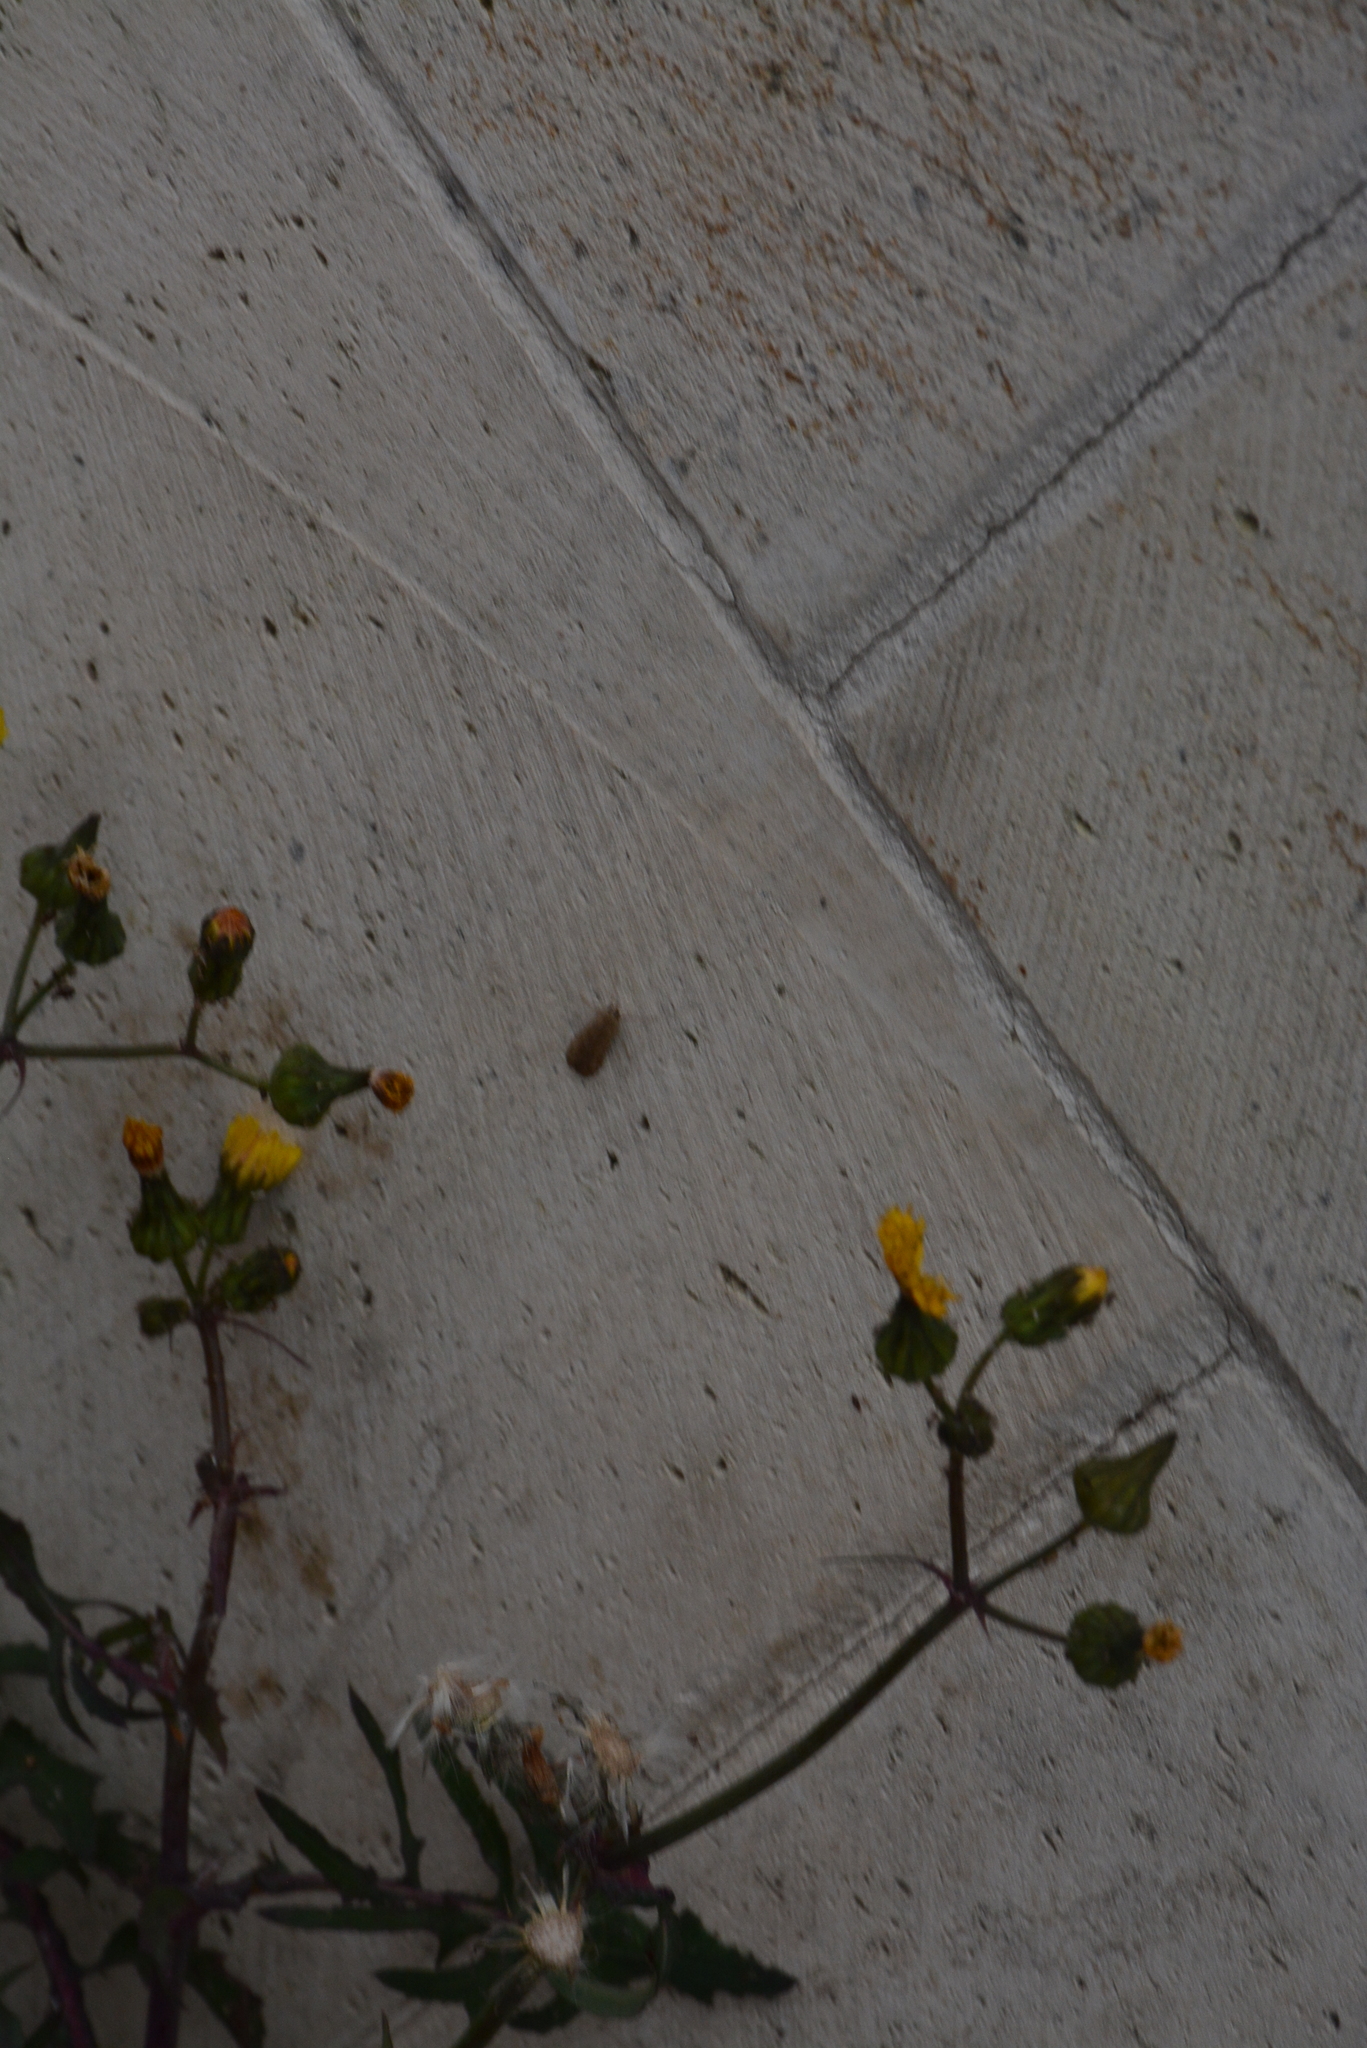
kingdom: Animalia
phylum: Arthropoda
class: Insecta
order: Lepidoptera
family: Crambidae
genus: Nomophila
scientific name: Nomophila noctuella
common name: Rush veneer
